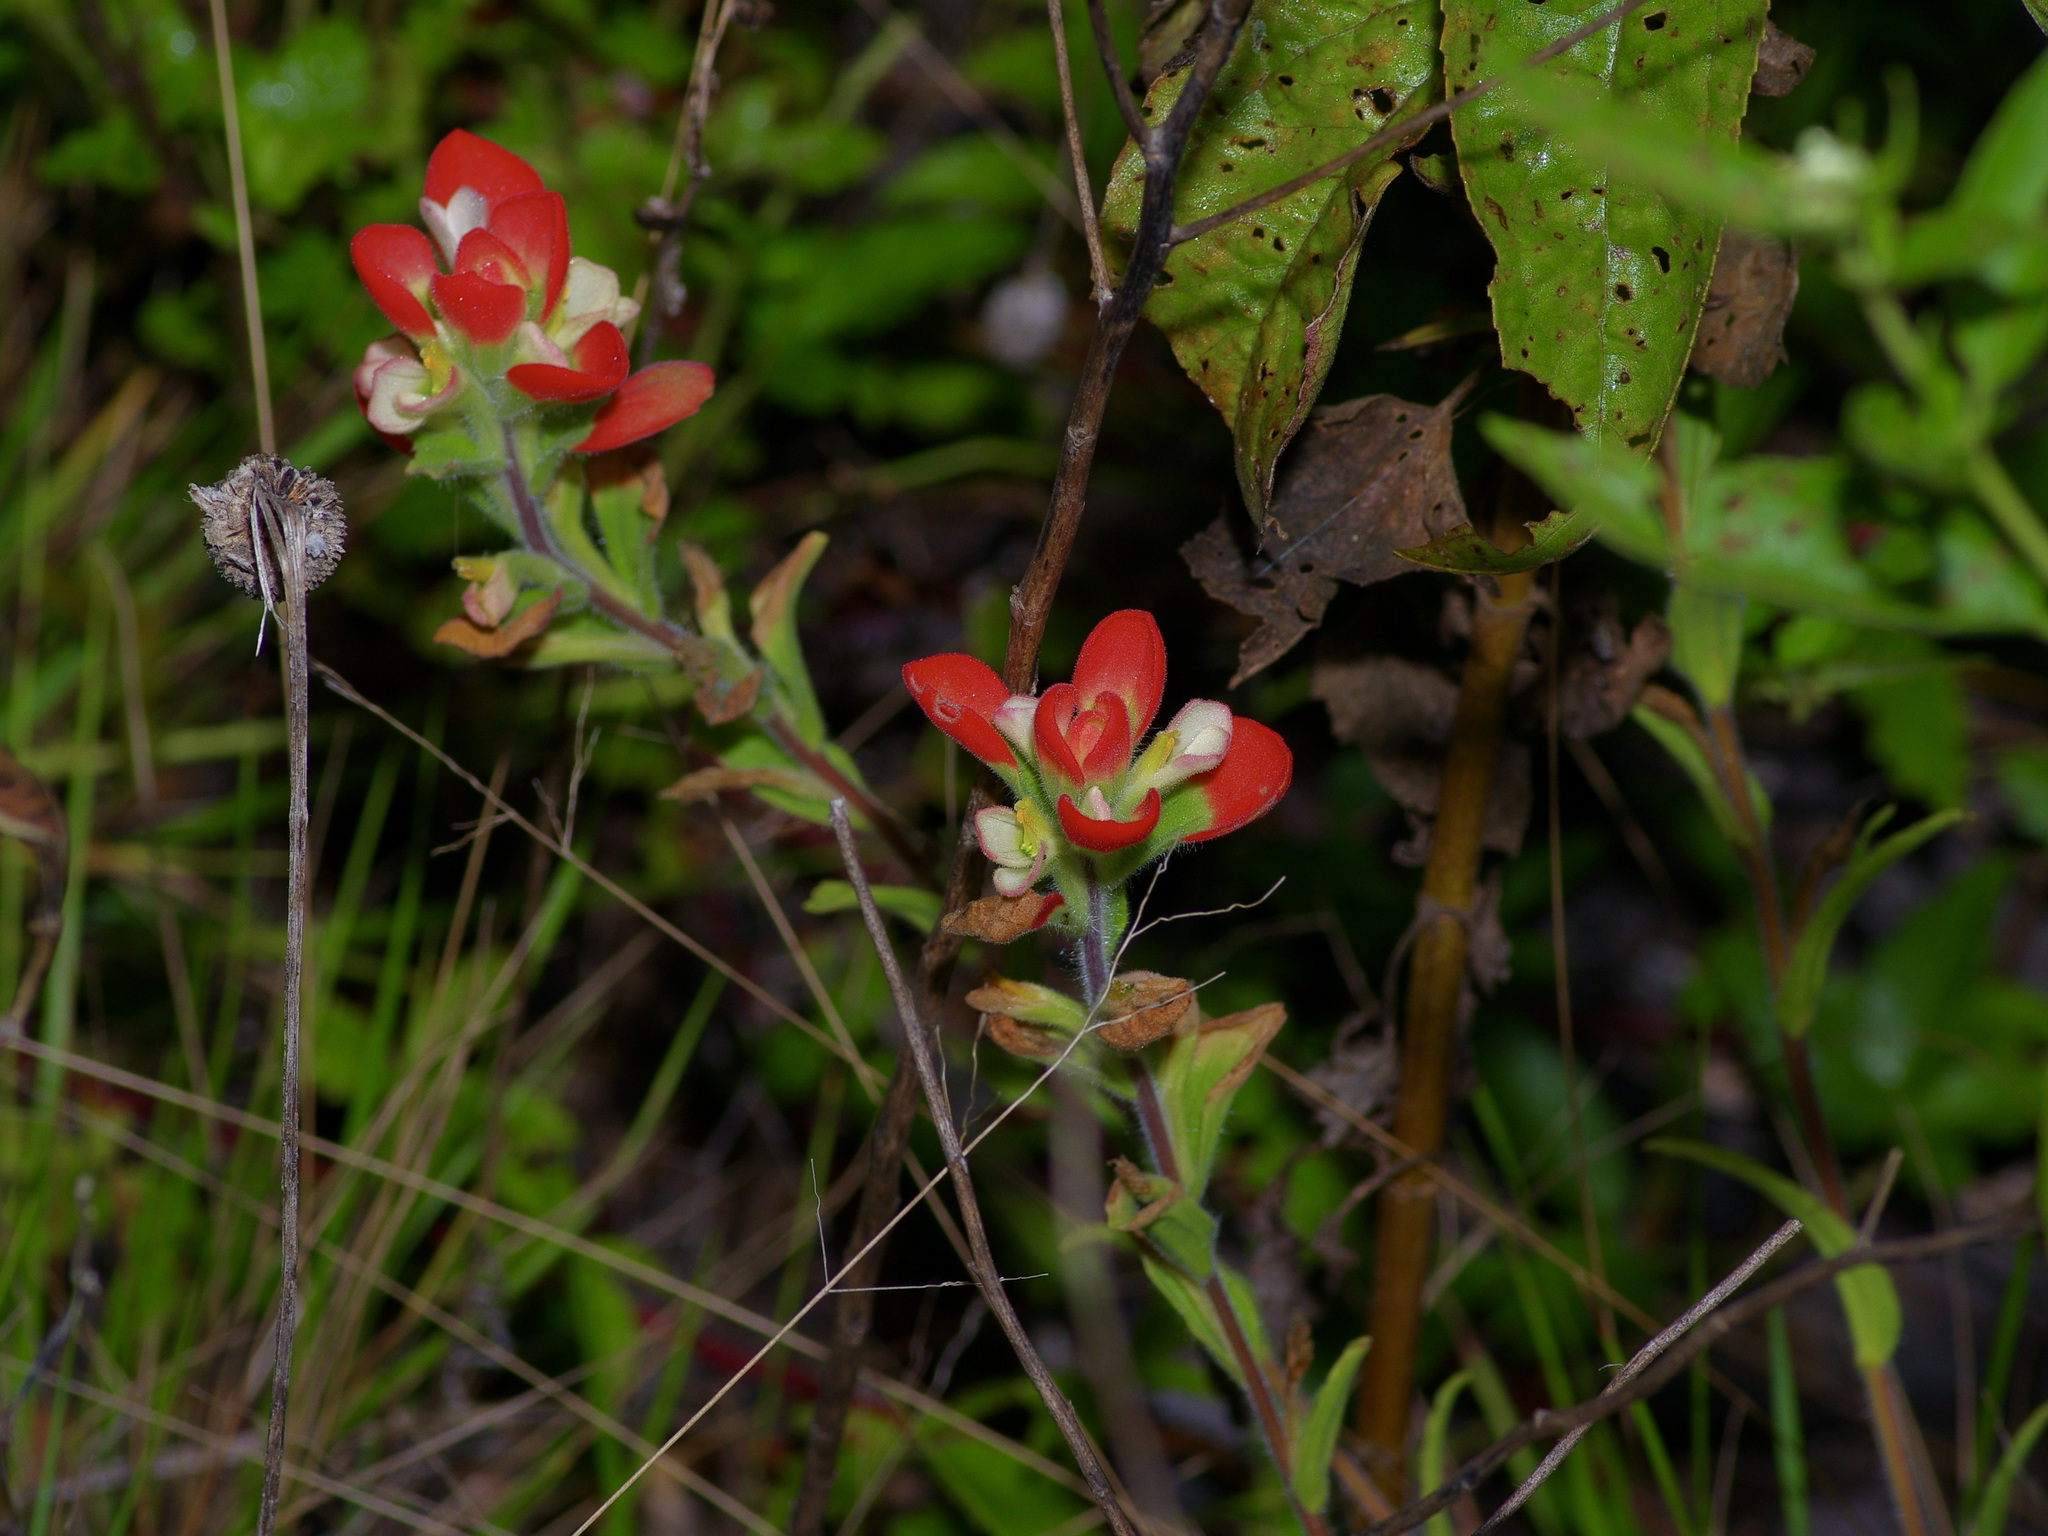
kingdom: Plantae
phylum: Tracheophyta
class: Magnoliopsida
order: Lamiales
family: Orobanchaceae
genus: Castilleja
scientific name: Castilleja indivisa
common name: Texas paintbrush
